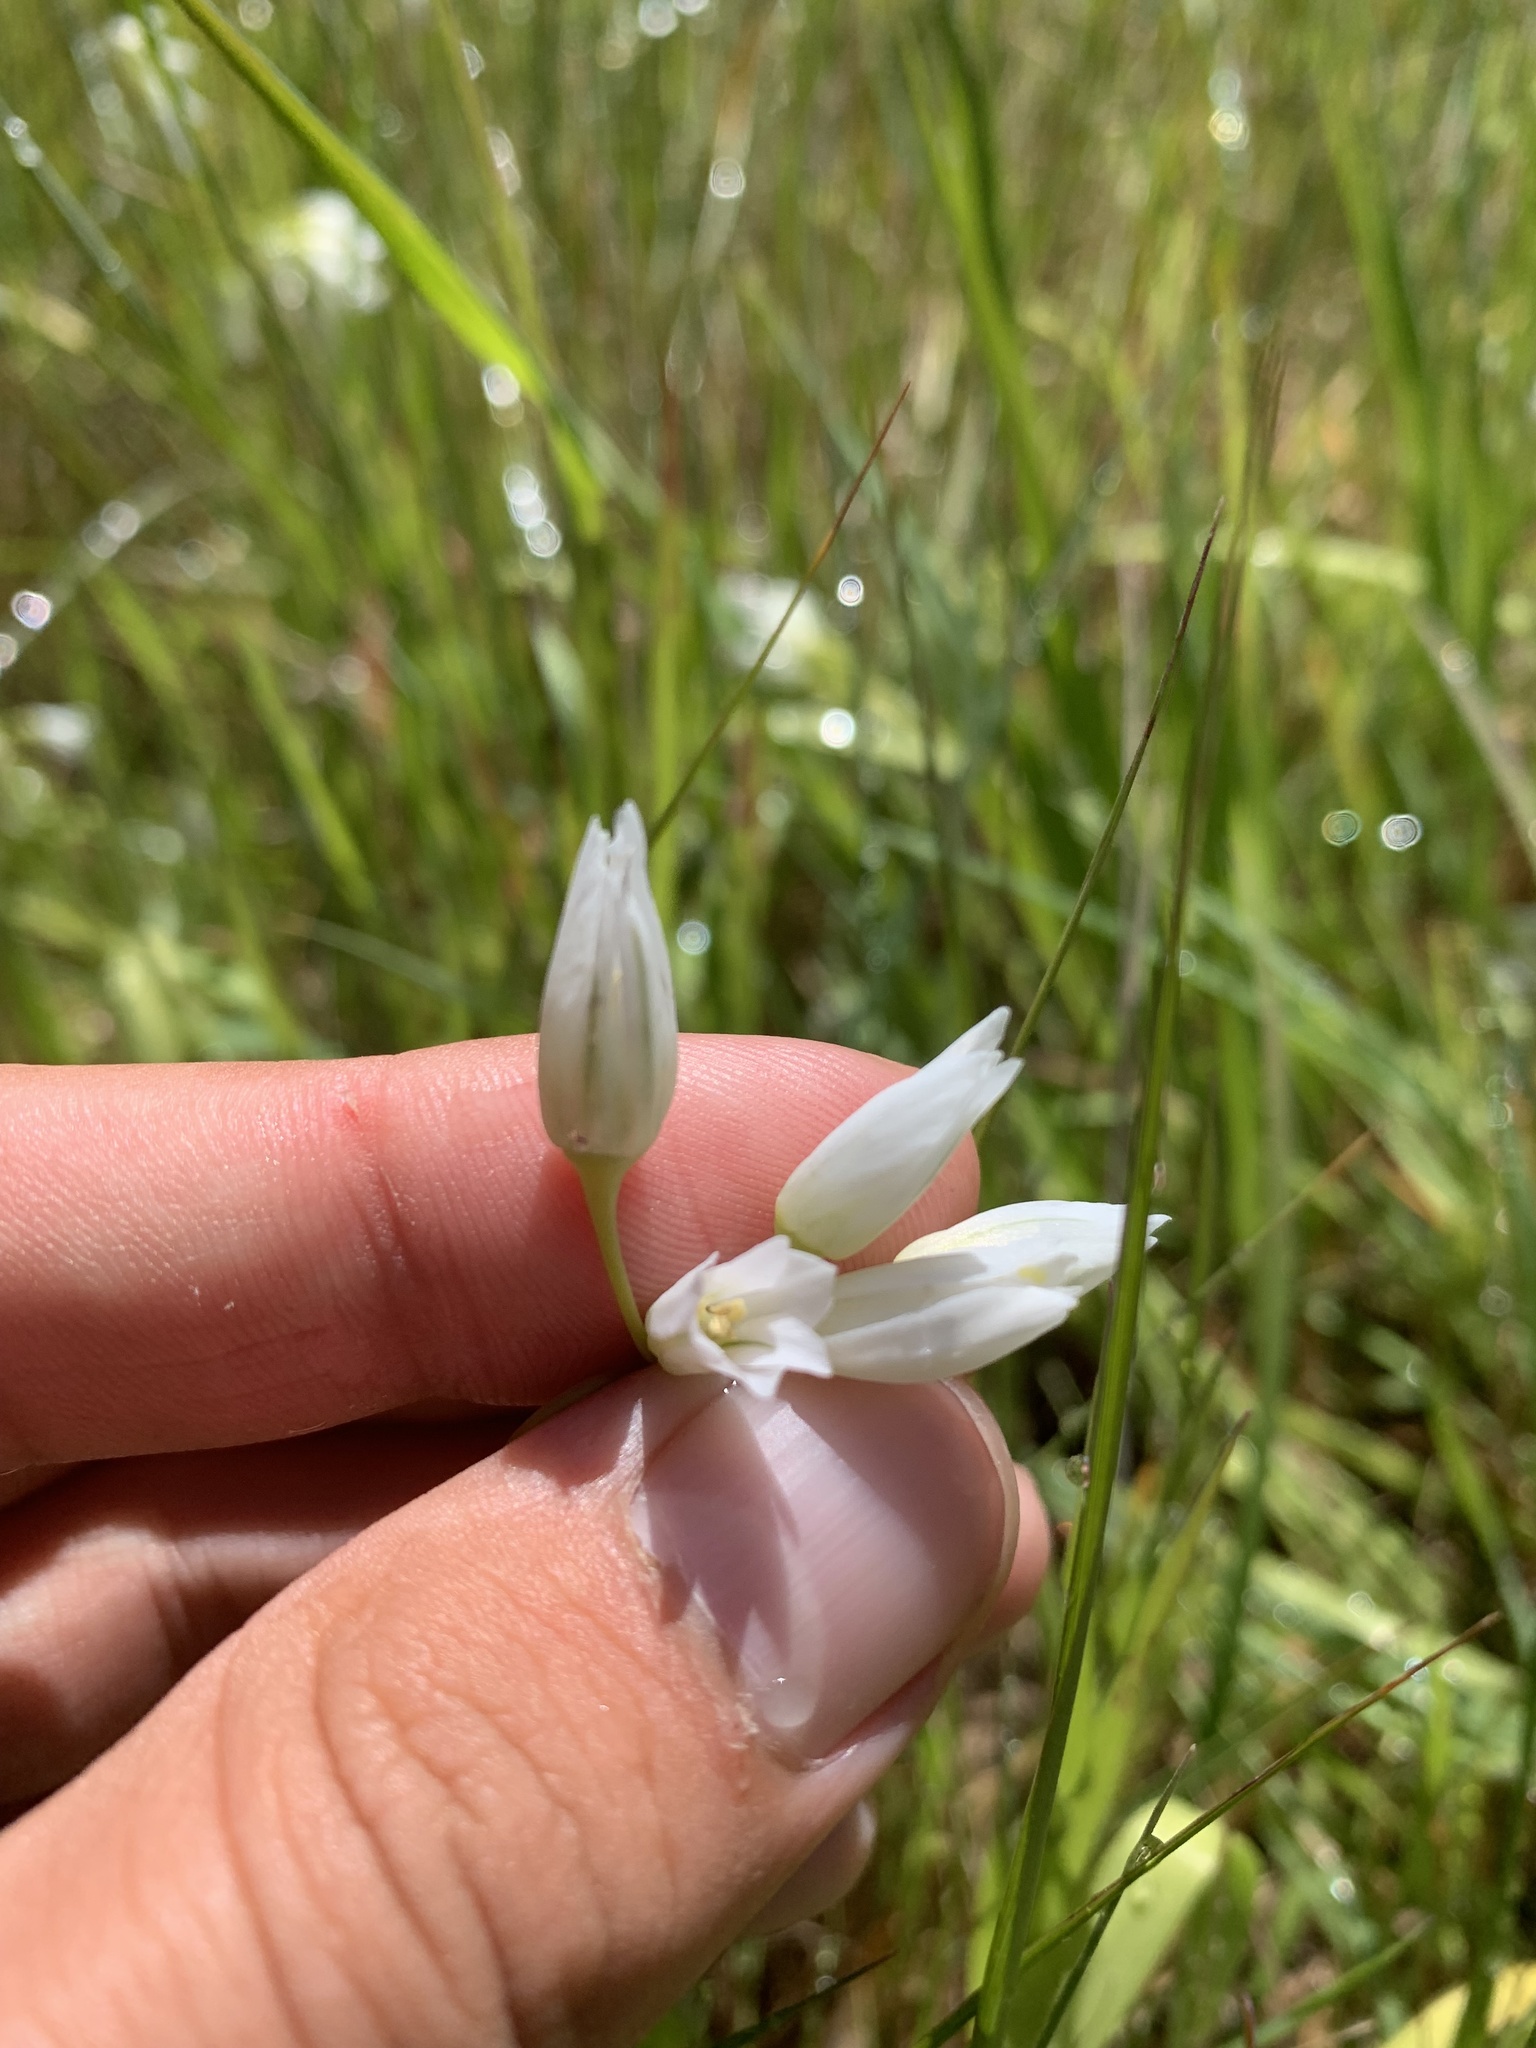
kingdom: Plantae
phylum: Tracheophyta
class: Liliopsida
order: Asparagales
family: Amaryllidaceae
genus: Allium
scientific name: Allium triquetrum
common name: Three-cornered garlic
